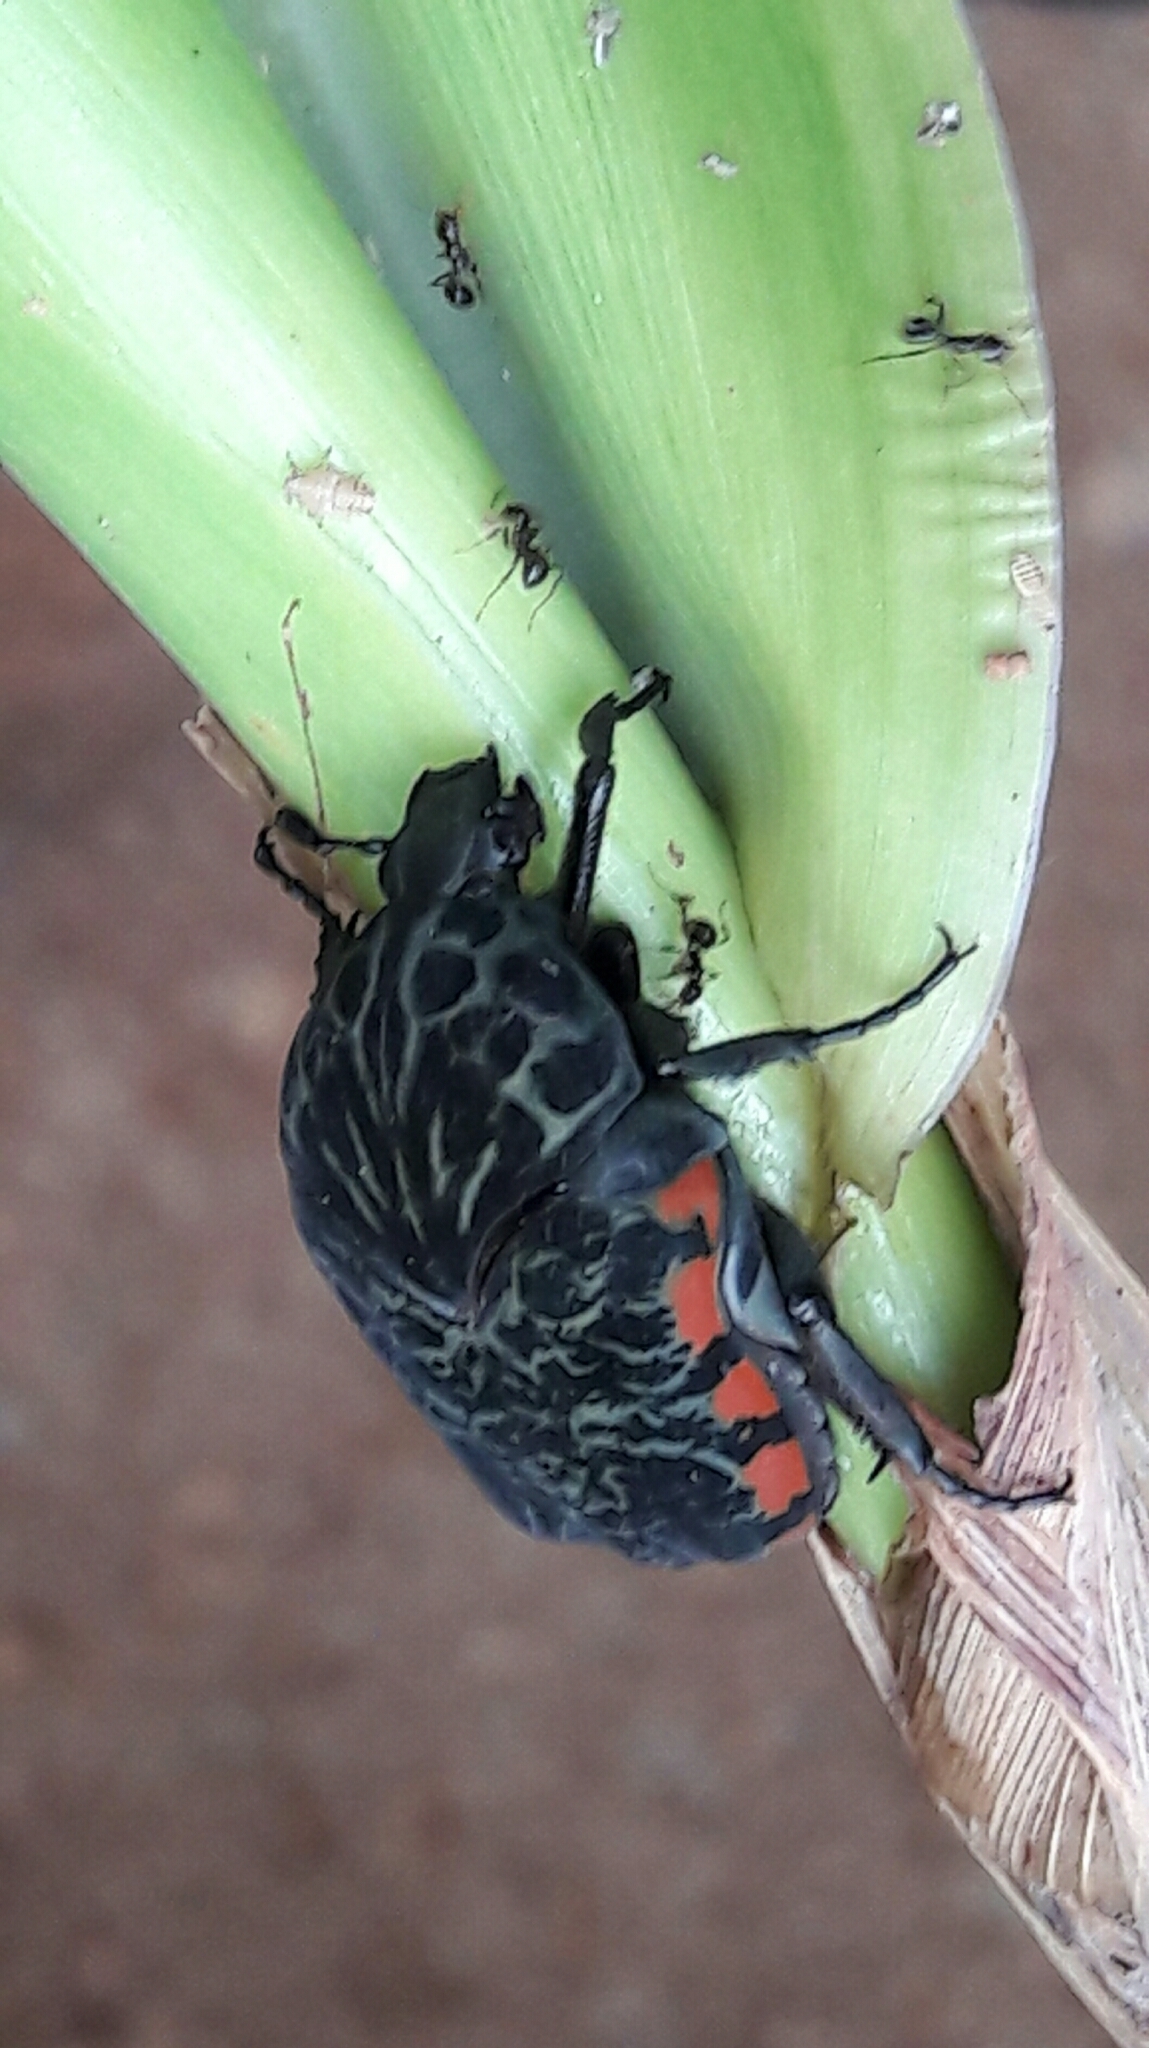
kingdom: Animalia
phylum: Arthropoda
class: Insecta
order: Coleoptera
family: Scarabaeidae
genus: Gymnetis
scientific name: Gymnetis rufilatris
